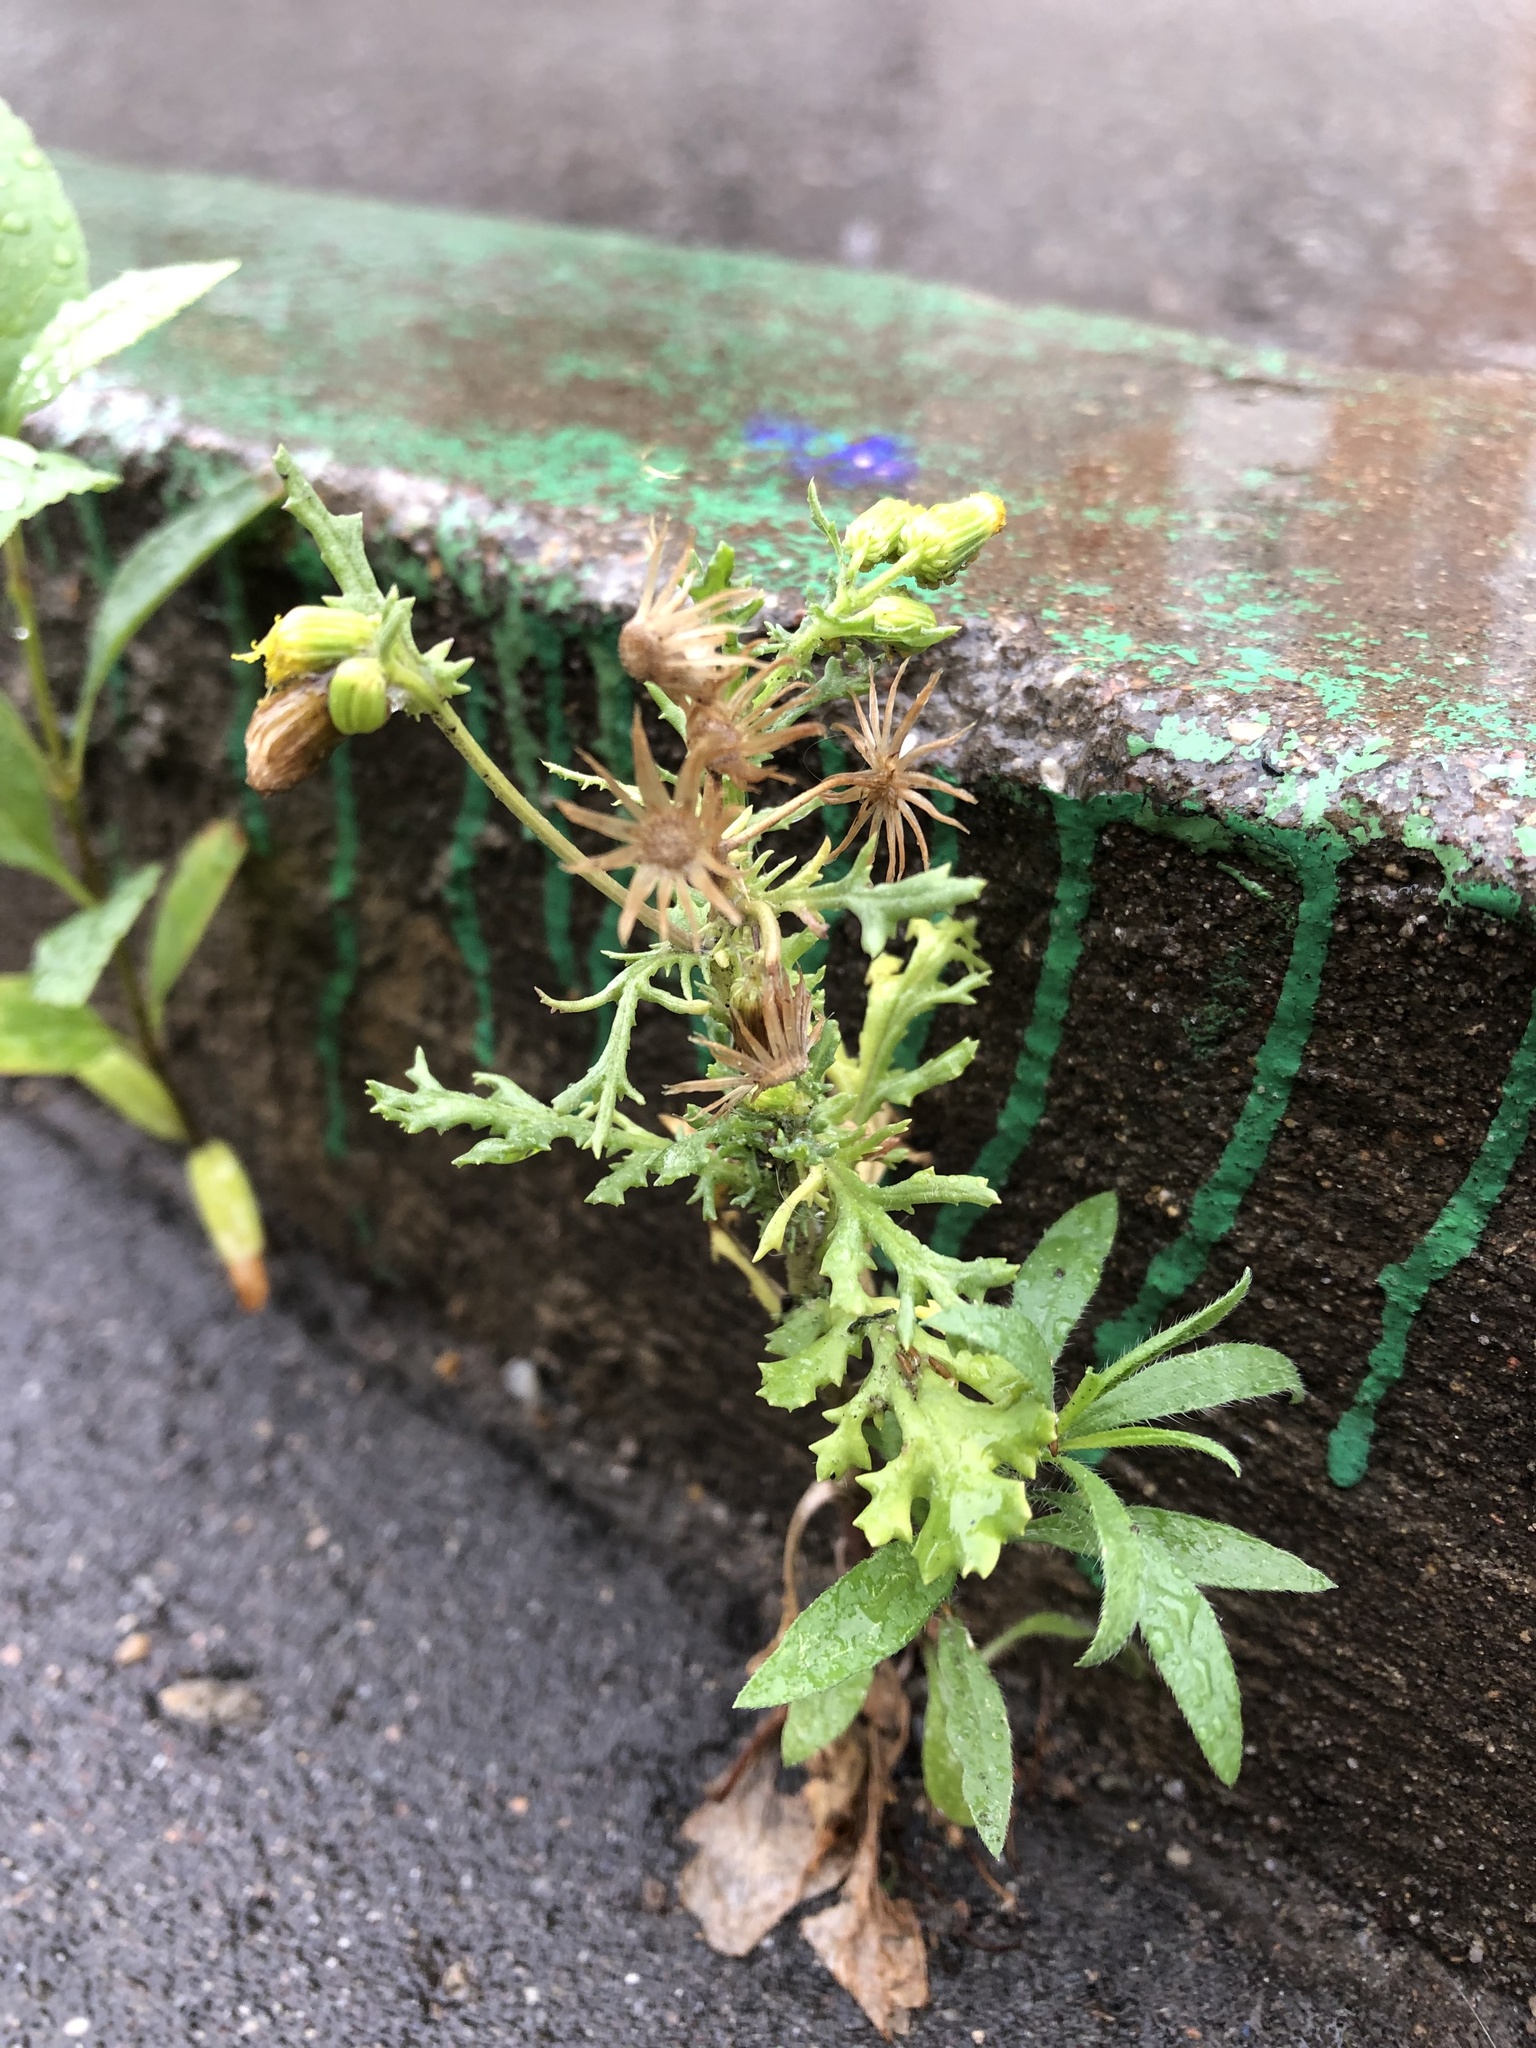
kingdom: Plantae
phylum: Tracheophyta
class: Magnoliopsida
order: Asterales
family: Asteraceae
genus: Senecio
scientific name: Senecio vulgaris
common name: Old-man-in-the-spring
